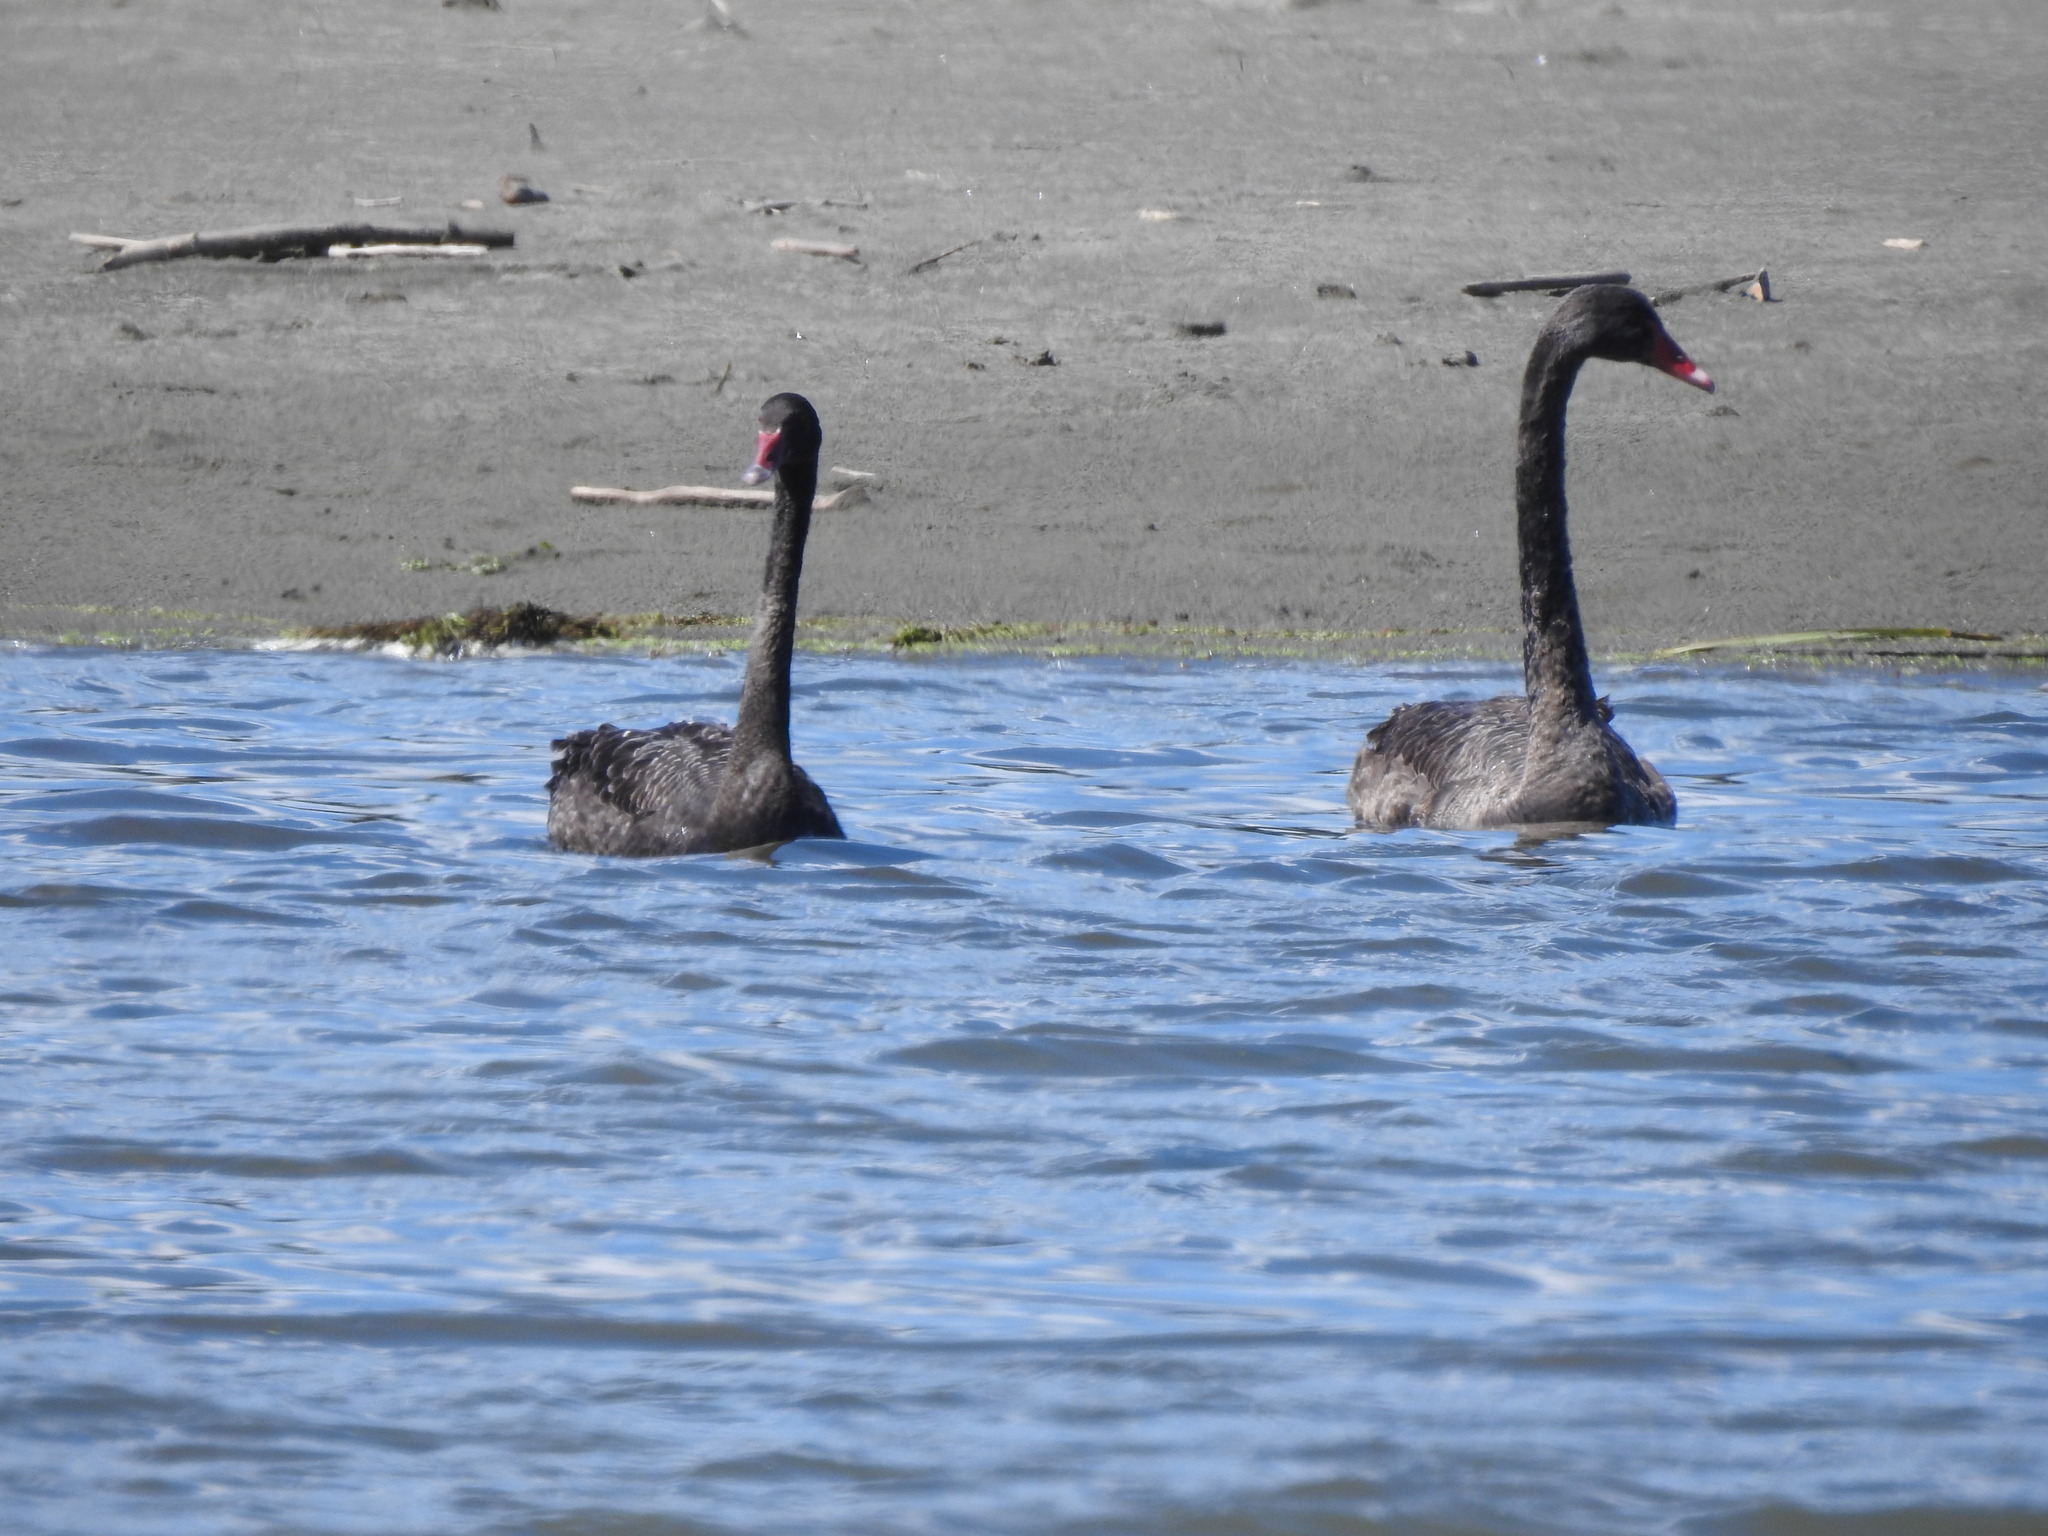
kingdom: Animalia
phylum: Chordata
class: Aves
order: Anseriformes
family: Anatidae
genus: Cygnus
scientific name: Cygnus atratus
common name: Black swan
